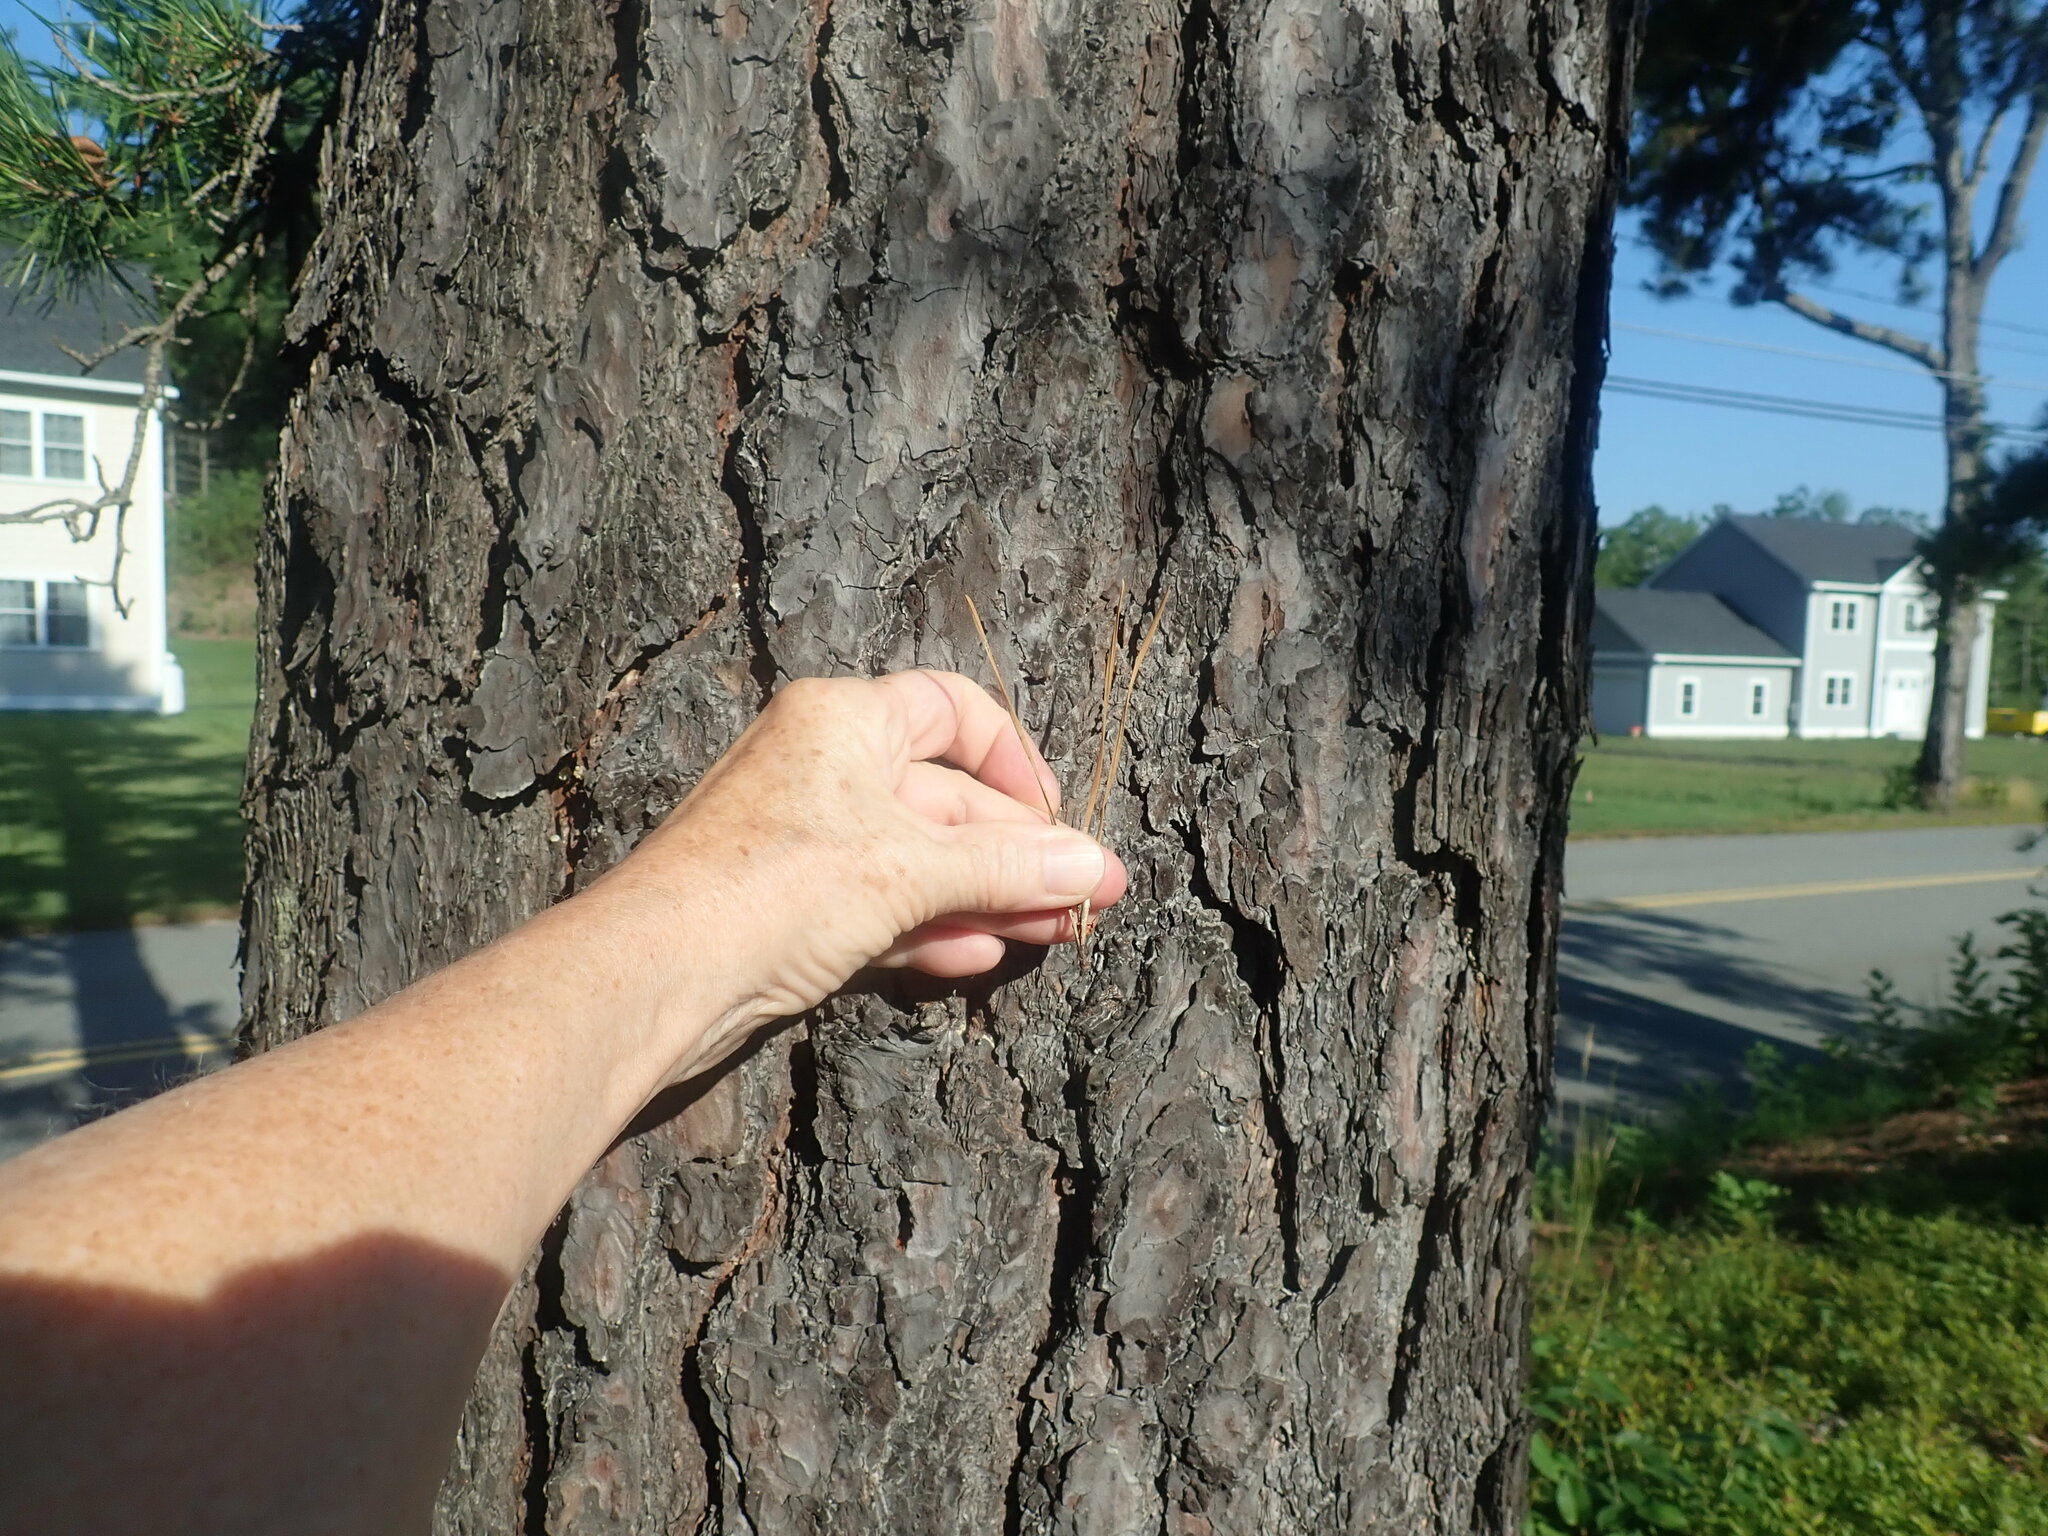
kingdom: Plantae
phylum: Tracheophyta
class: Pinopsida
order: Pinales
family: Pinaceae
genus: Pinus
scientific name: Pinus rigida
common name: Pitch pine
